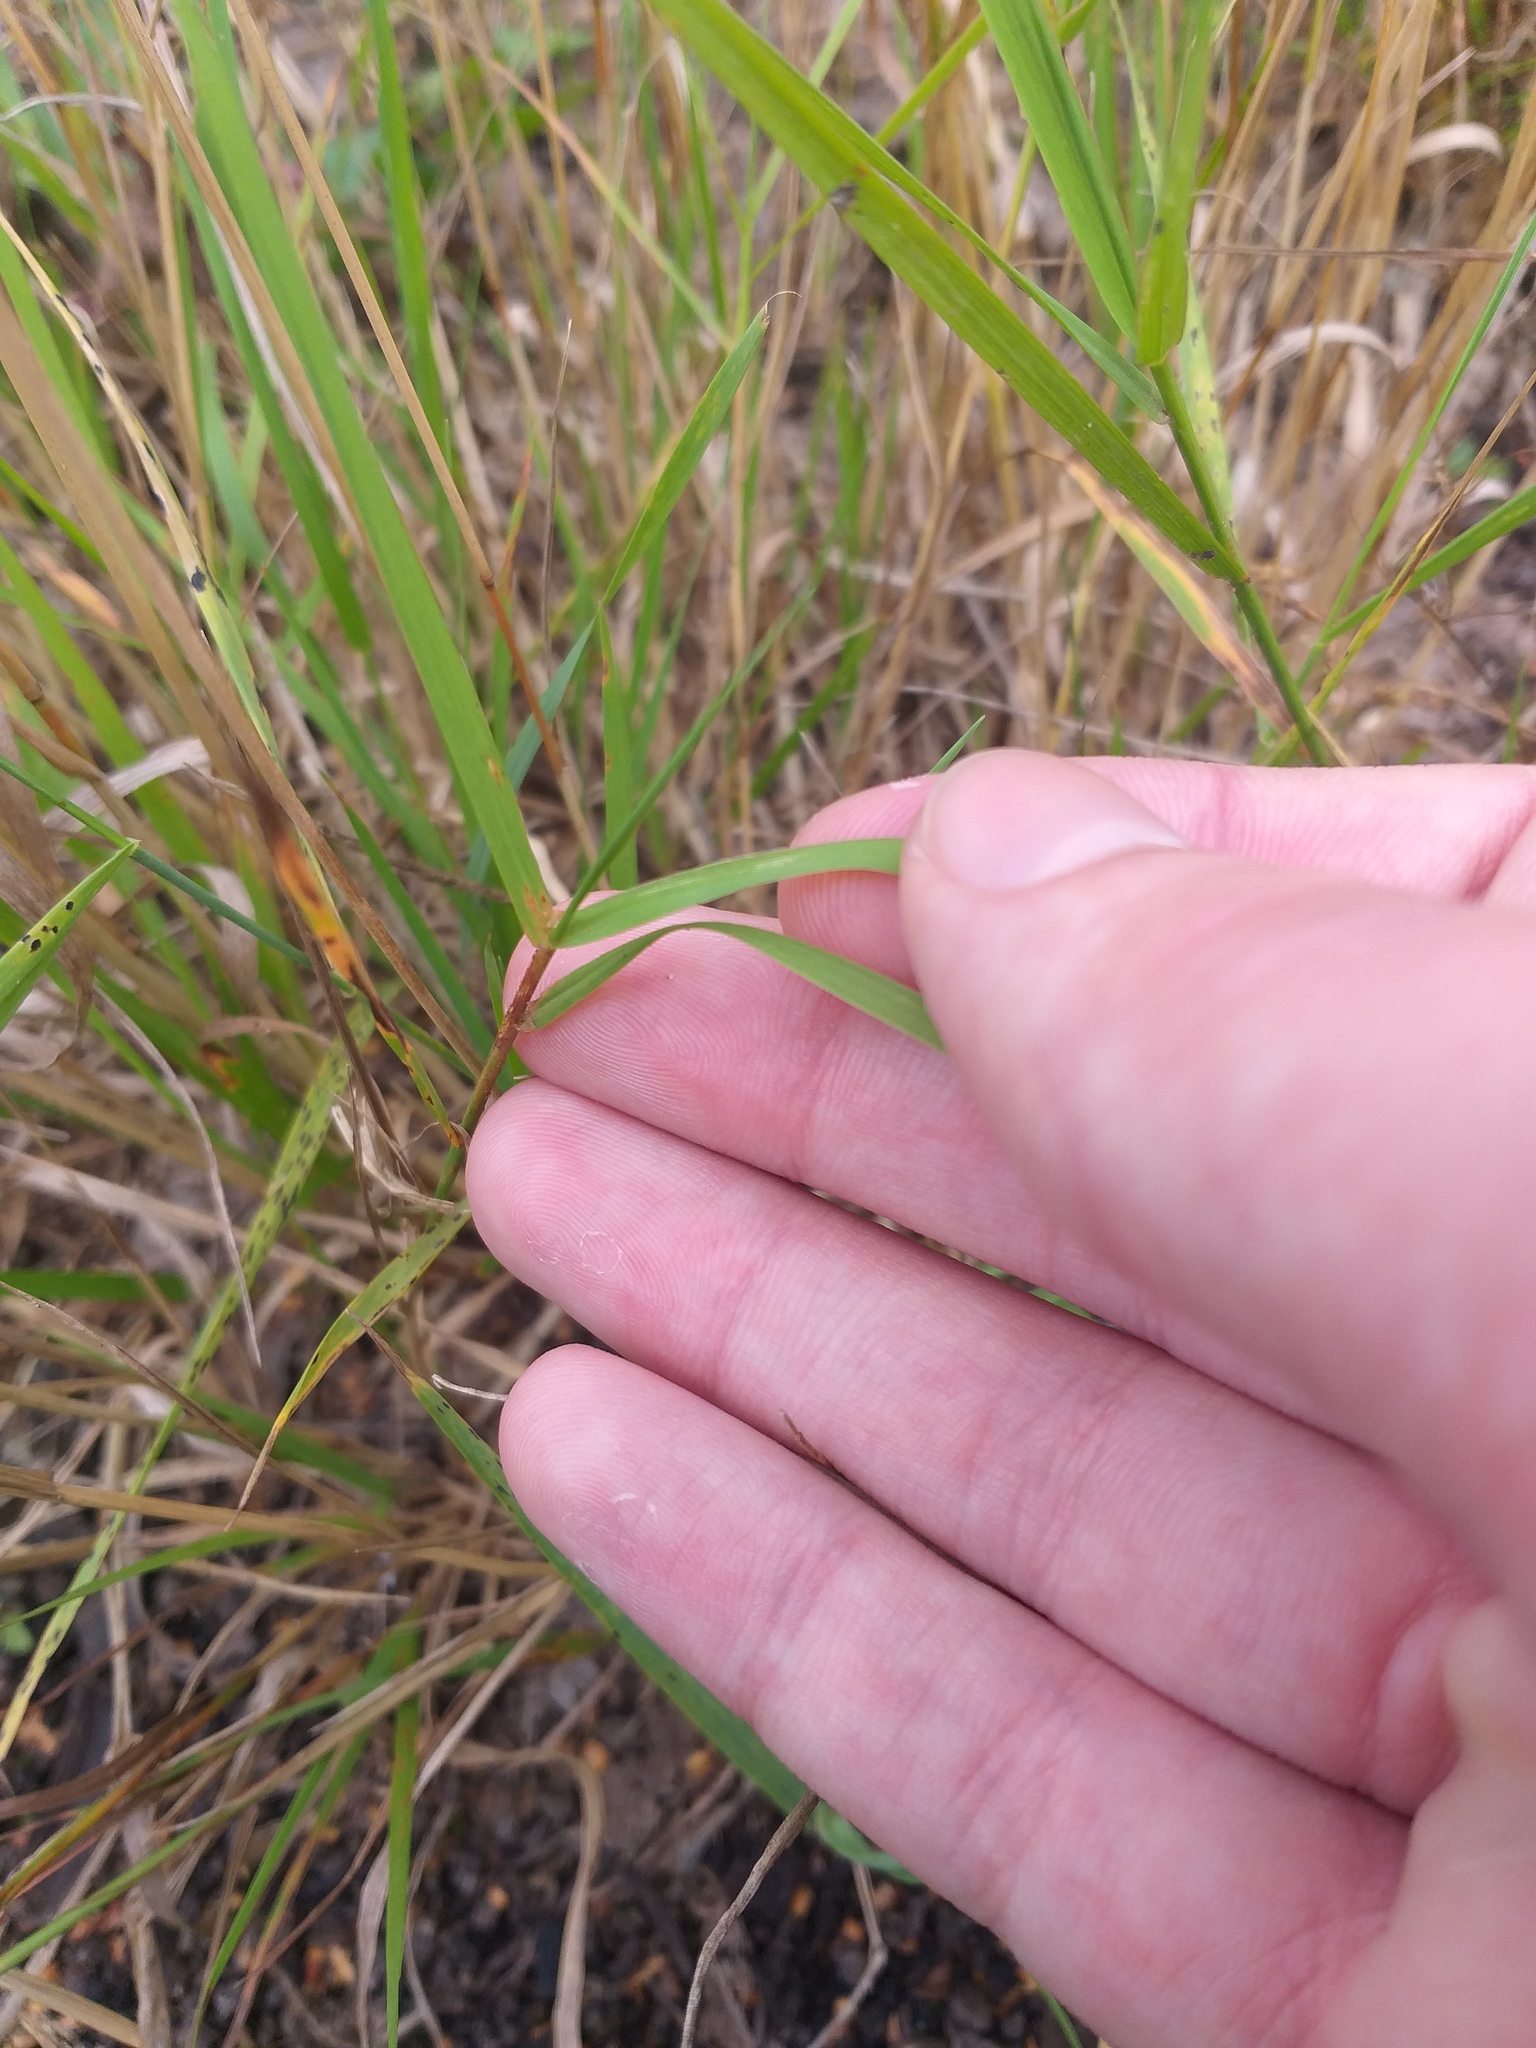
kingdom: Plantae
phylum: Tracheophyta
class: Liliopsida
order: Poales
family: Poaceae
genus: Agrostis
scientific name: Agrostis capillaris
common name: Colonial bentgrass
